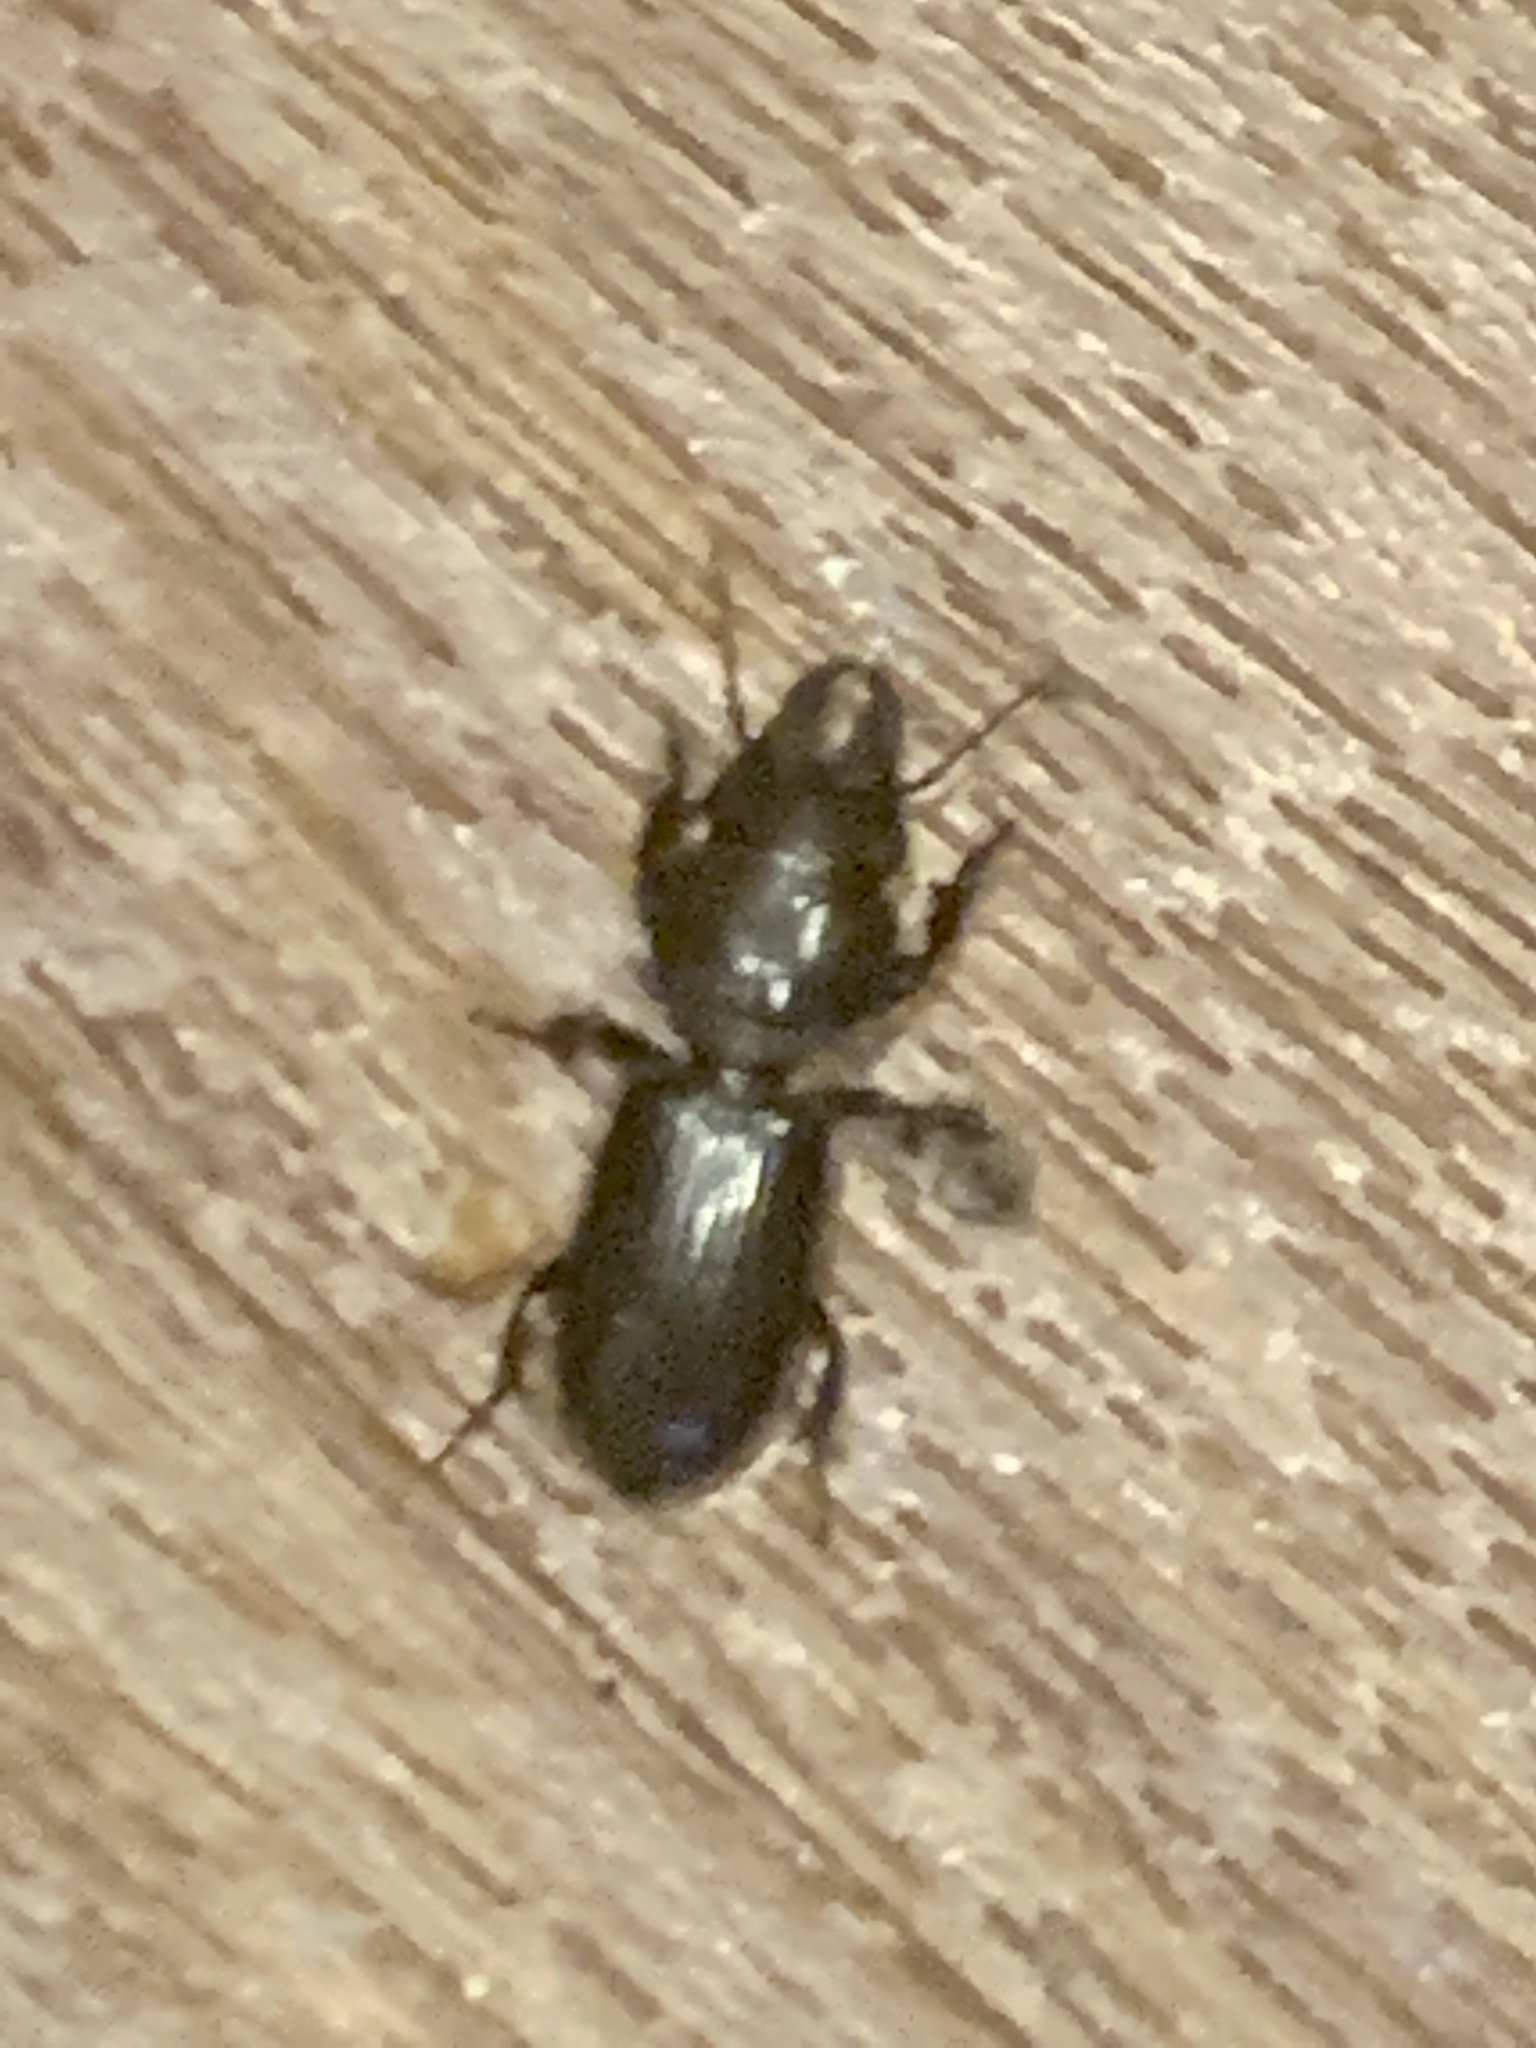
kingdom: Animalia
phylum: Arthropoda
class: Insecta
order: Coleoptera
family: Carabidae
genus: Scarites
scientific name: Scarites subterraneus
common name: Big-headed ground beetle
